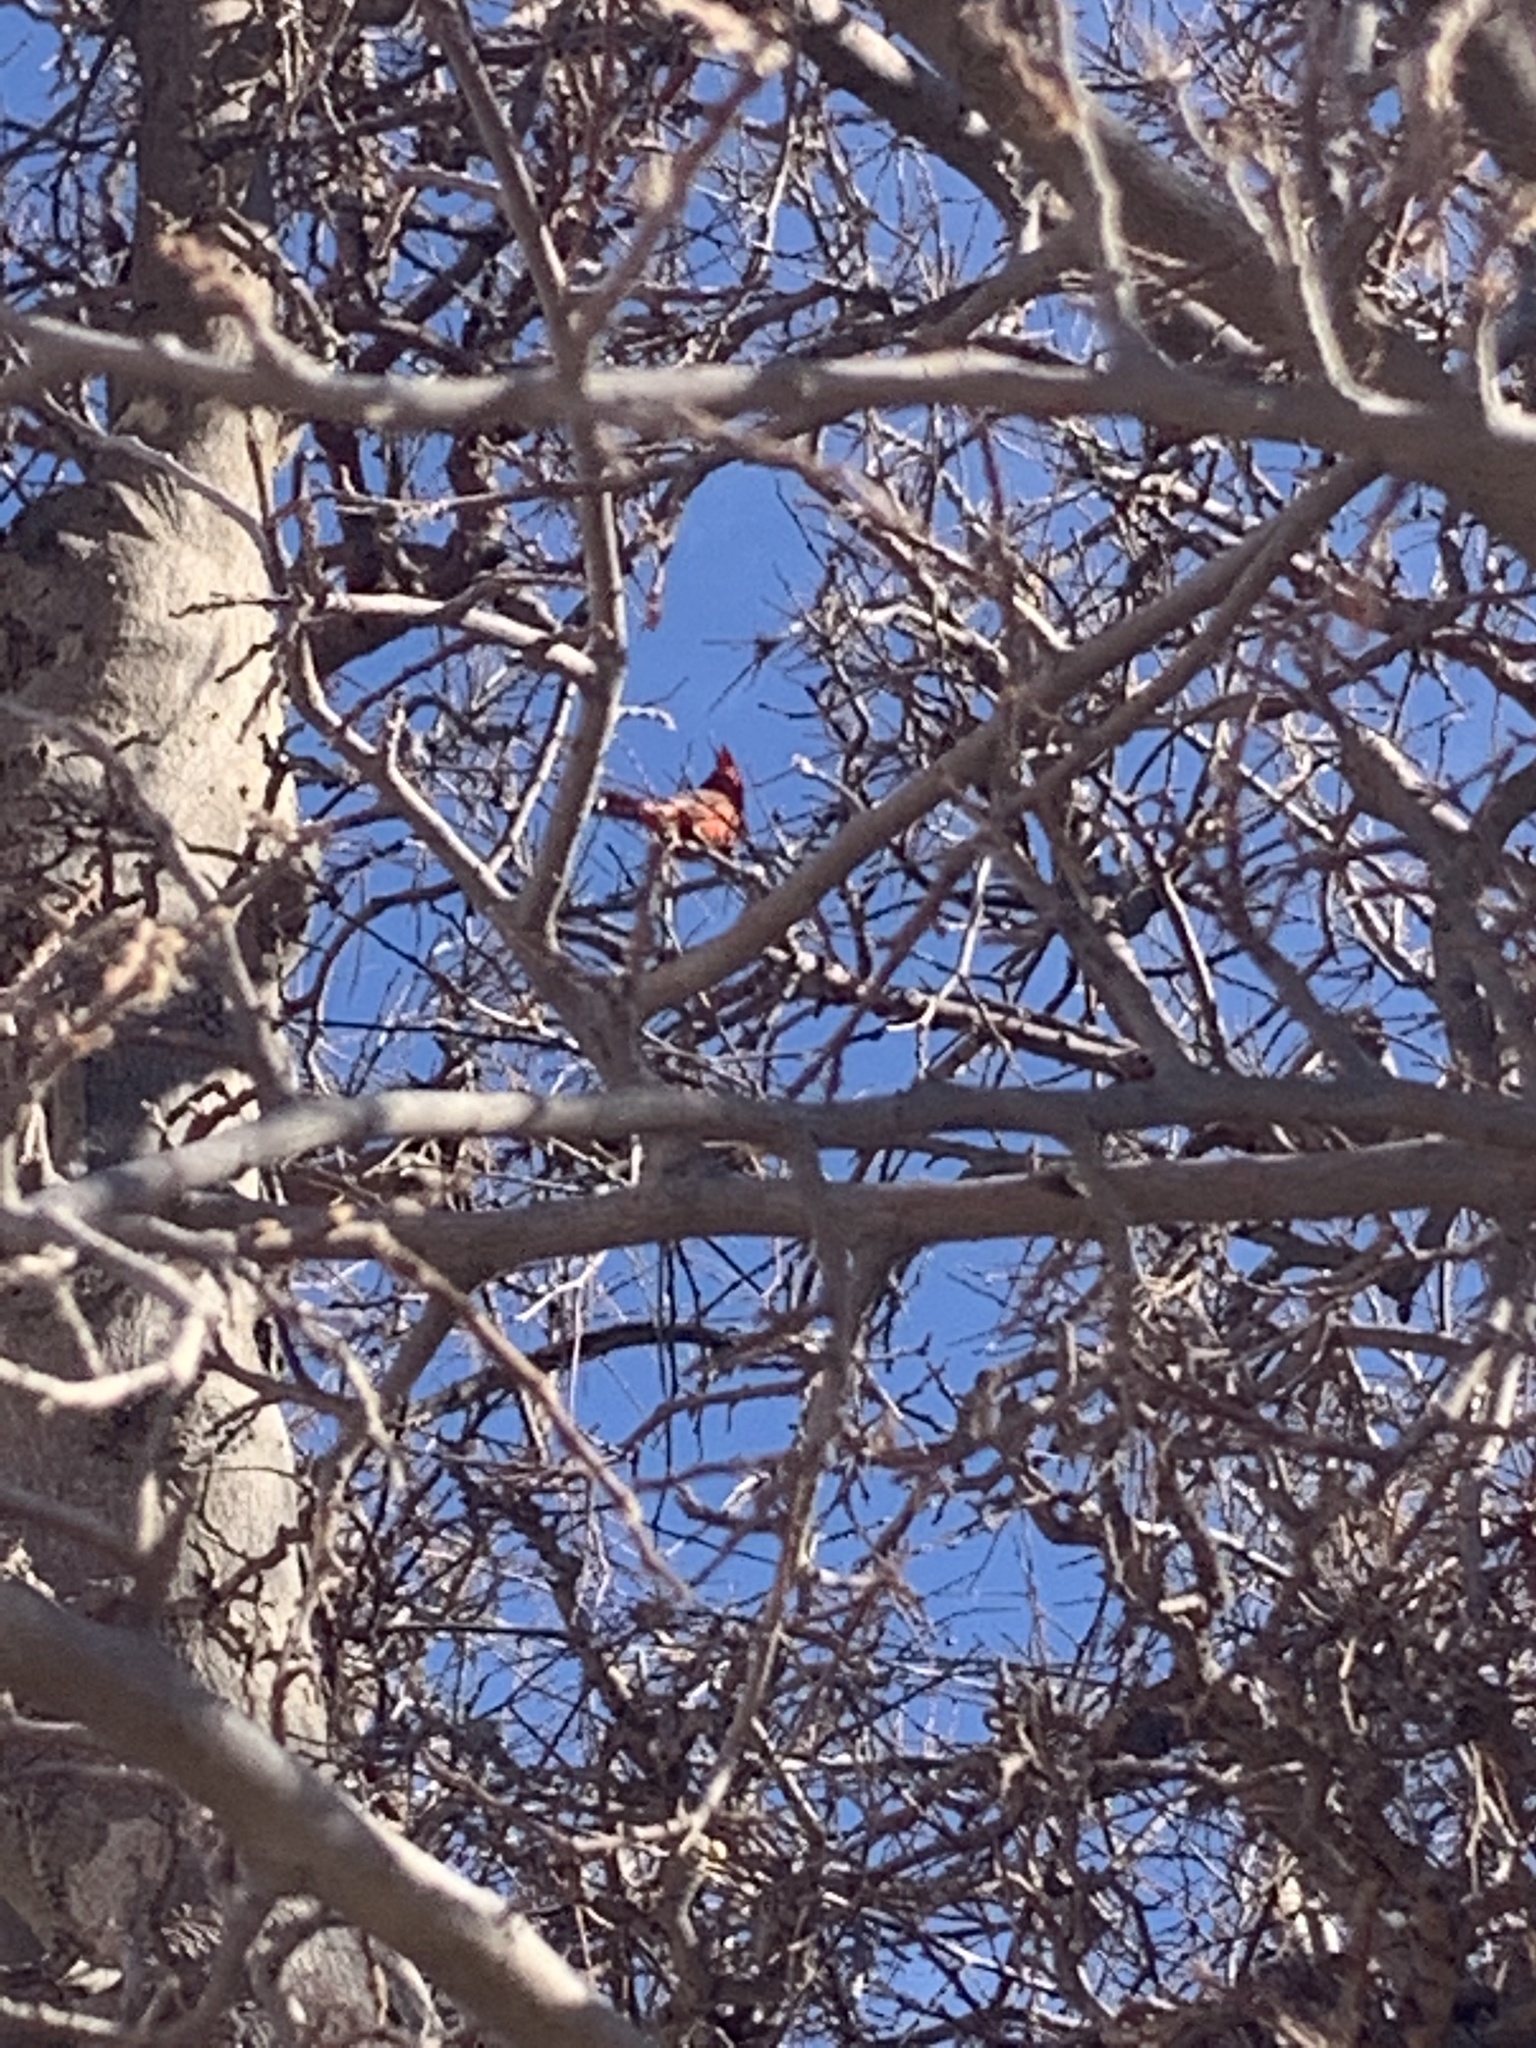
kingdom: Animalia
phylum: Chordata
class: Aves
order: Passeriformes
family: Cardinalidae
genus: Cardinalis
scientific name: Cardinalis cardinalis
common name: Northern cardinal
